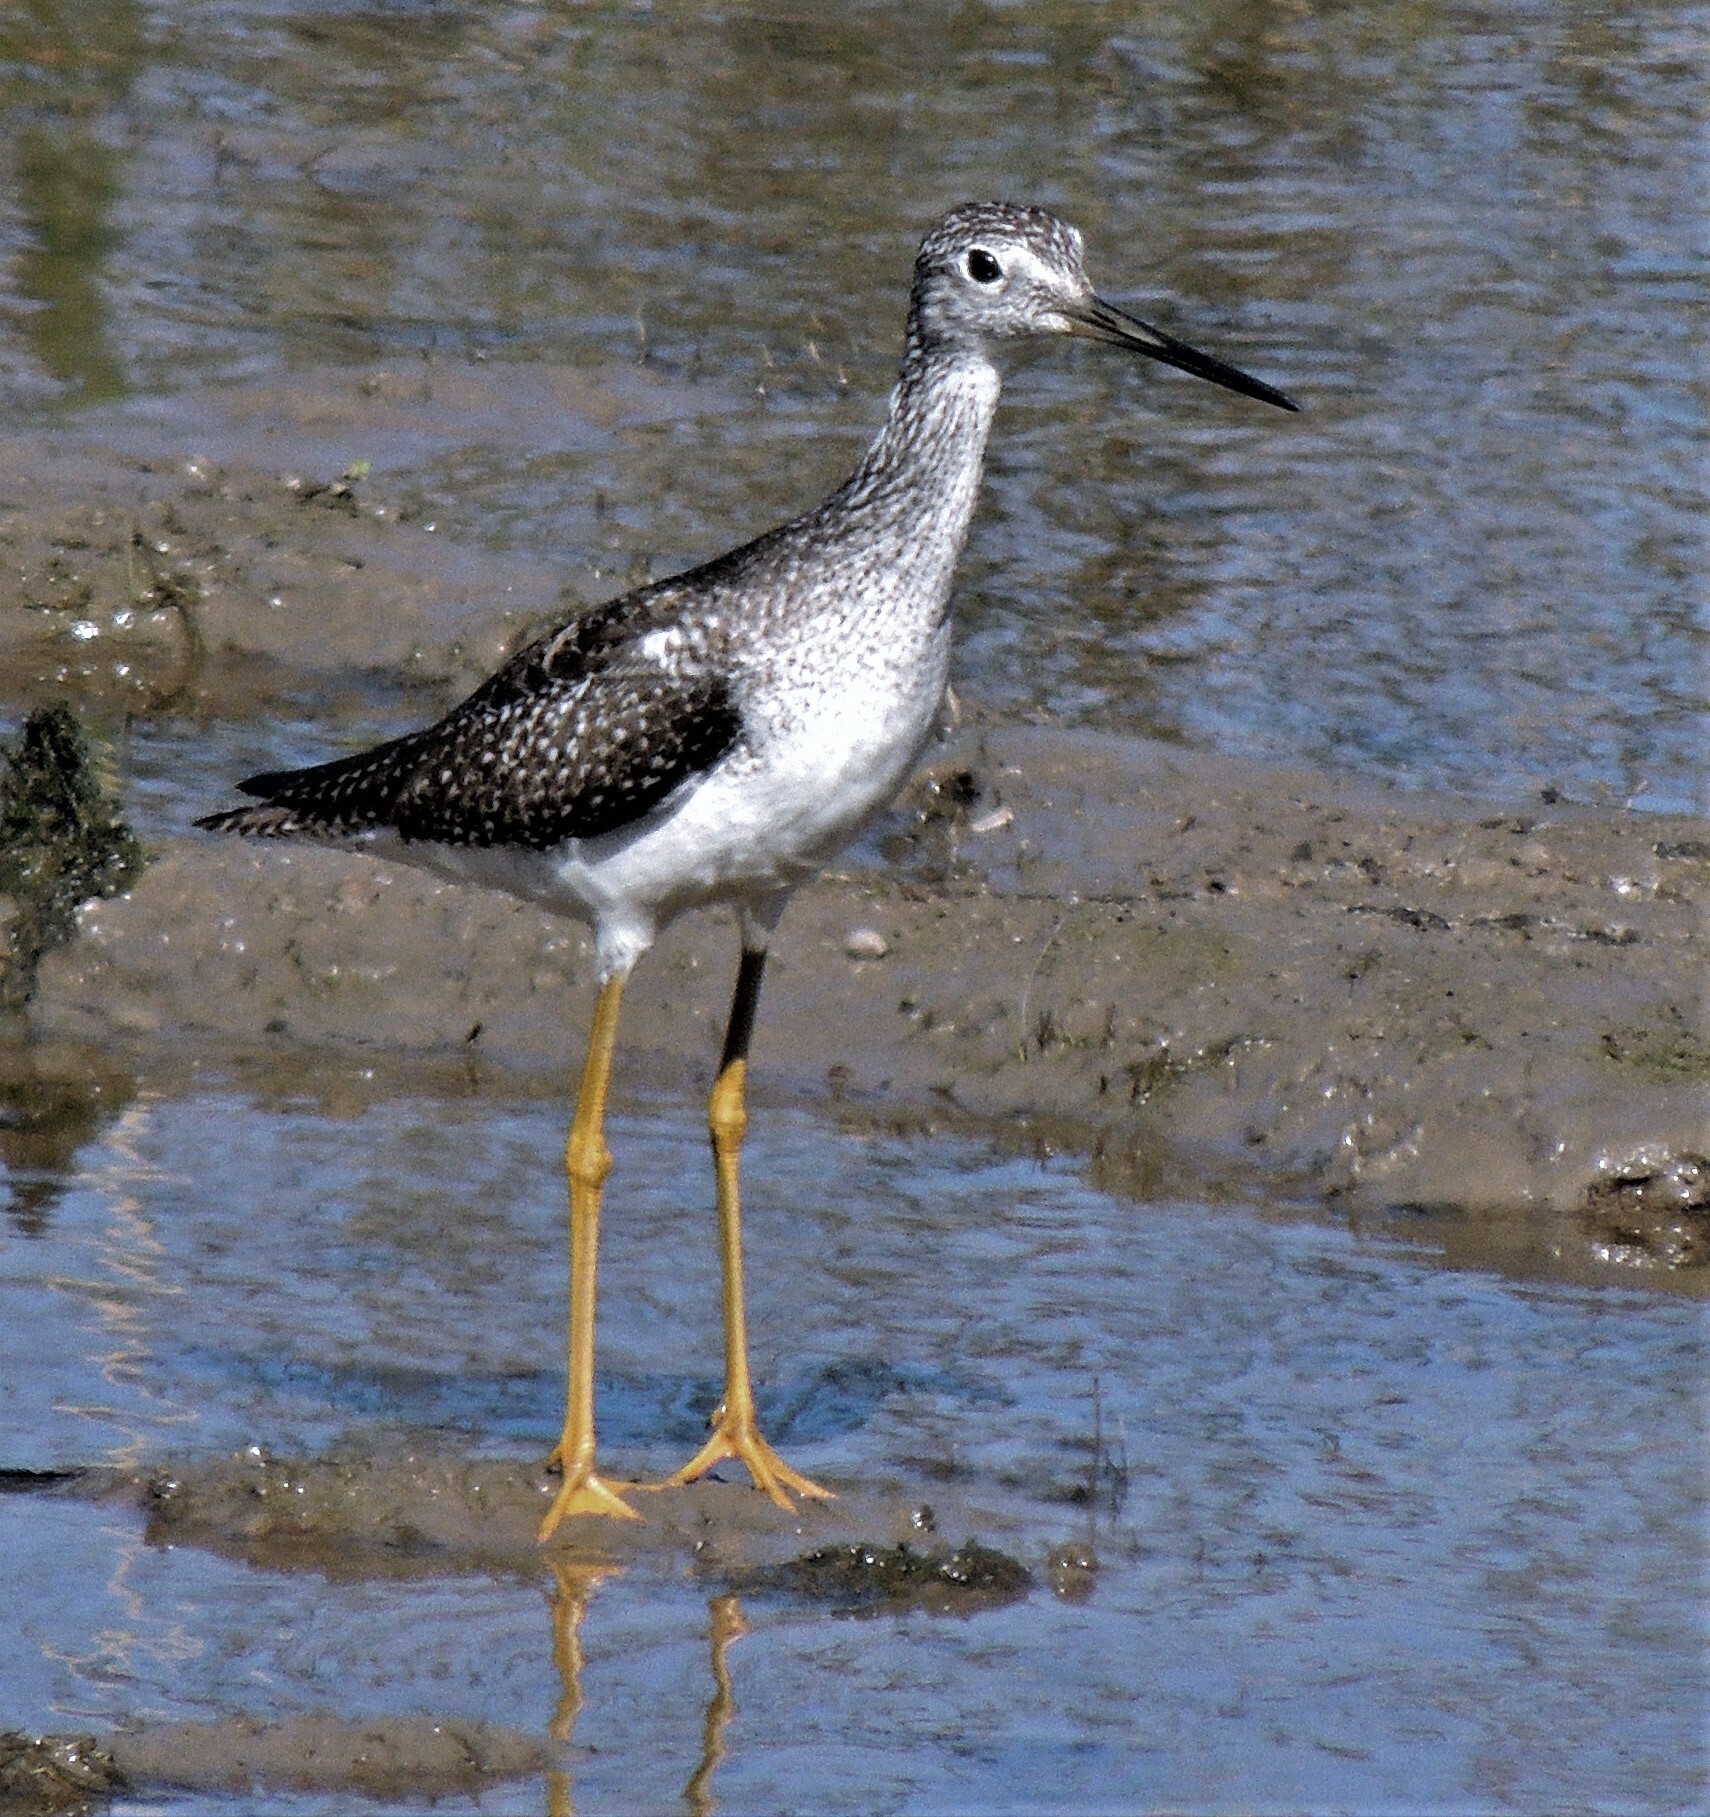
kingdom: Animalia
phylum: Chordata
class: Aves
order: Charadriiformes
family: Scolopacidae
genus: Tringa
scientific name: Tringa melanoleuca
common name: Greater yellowlegs
